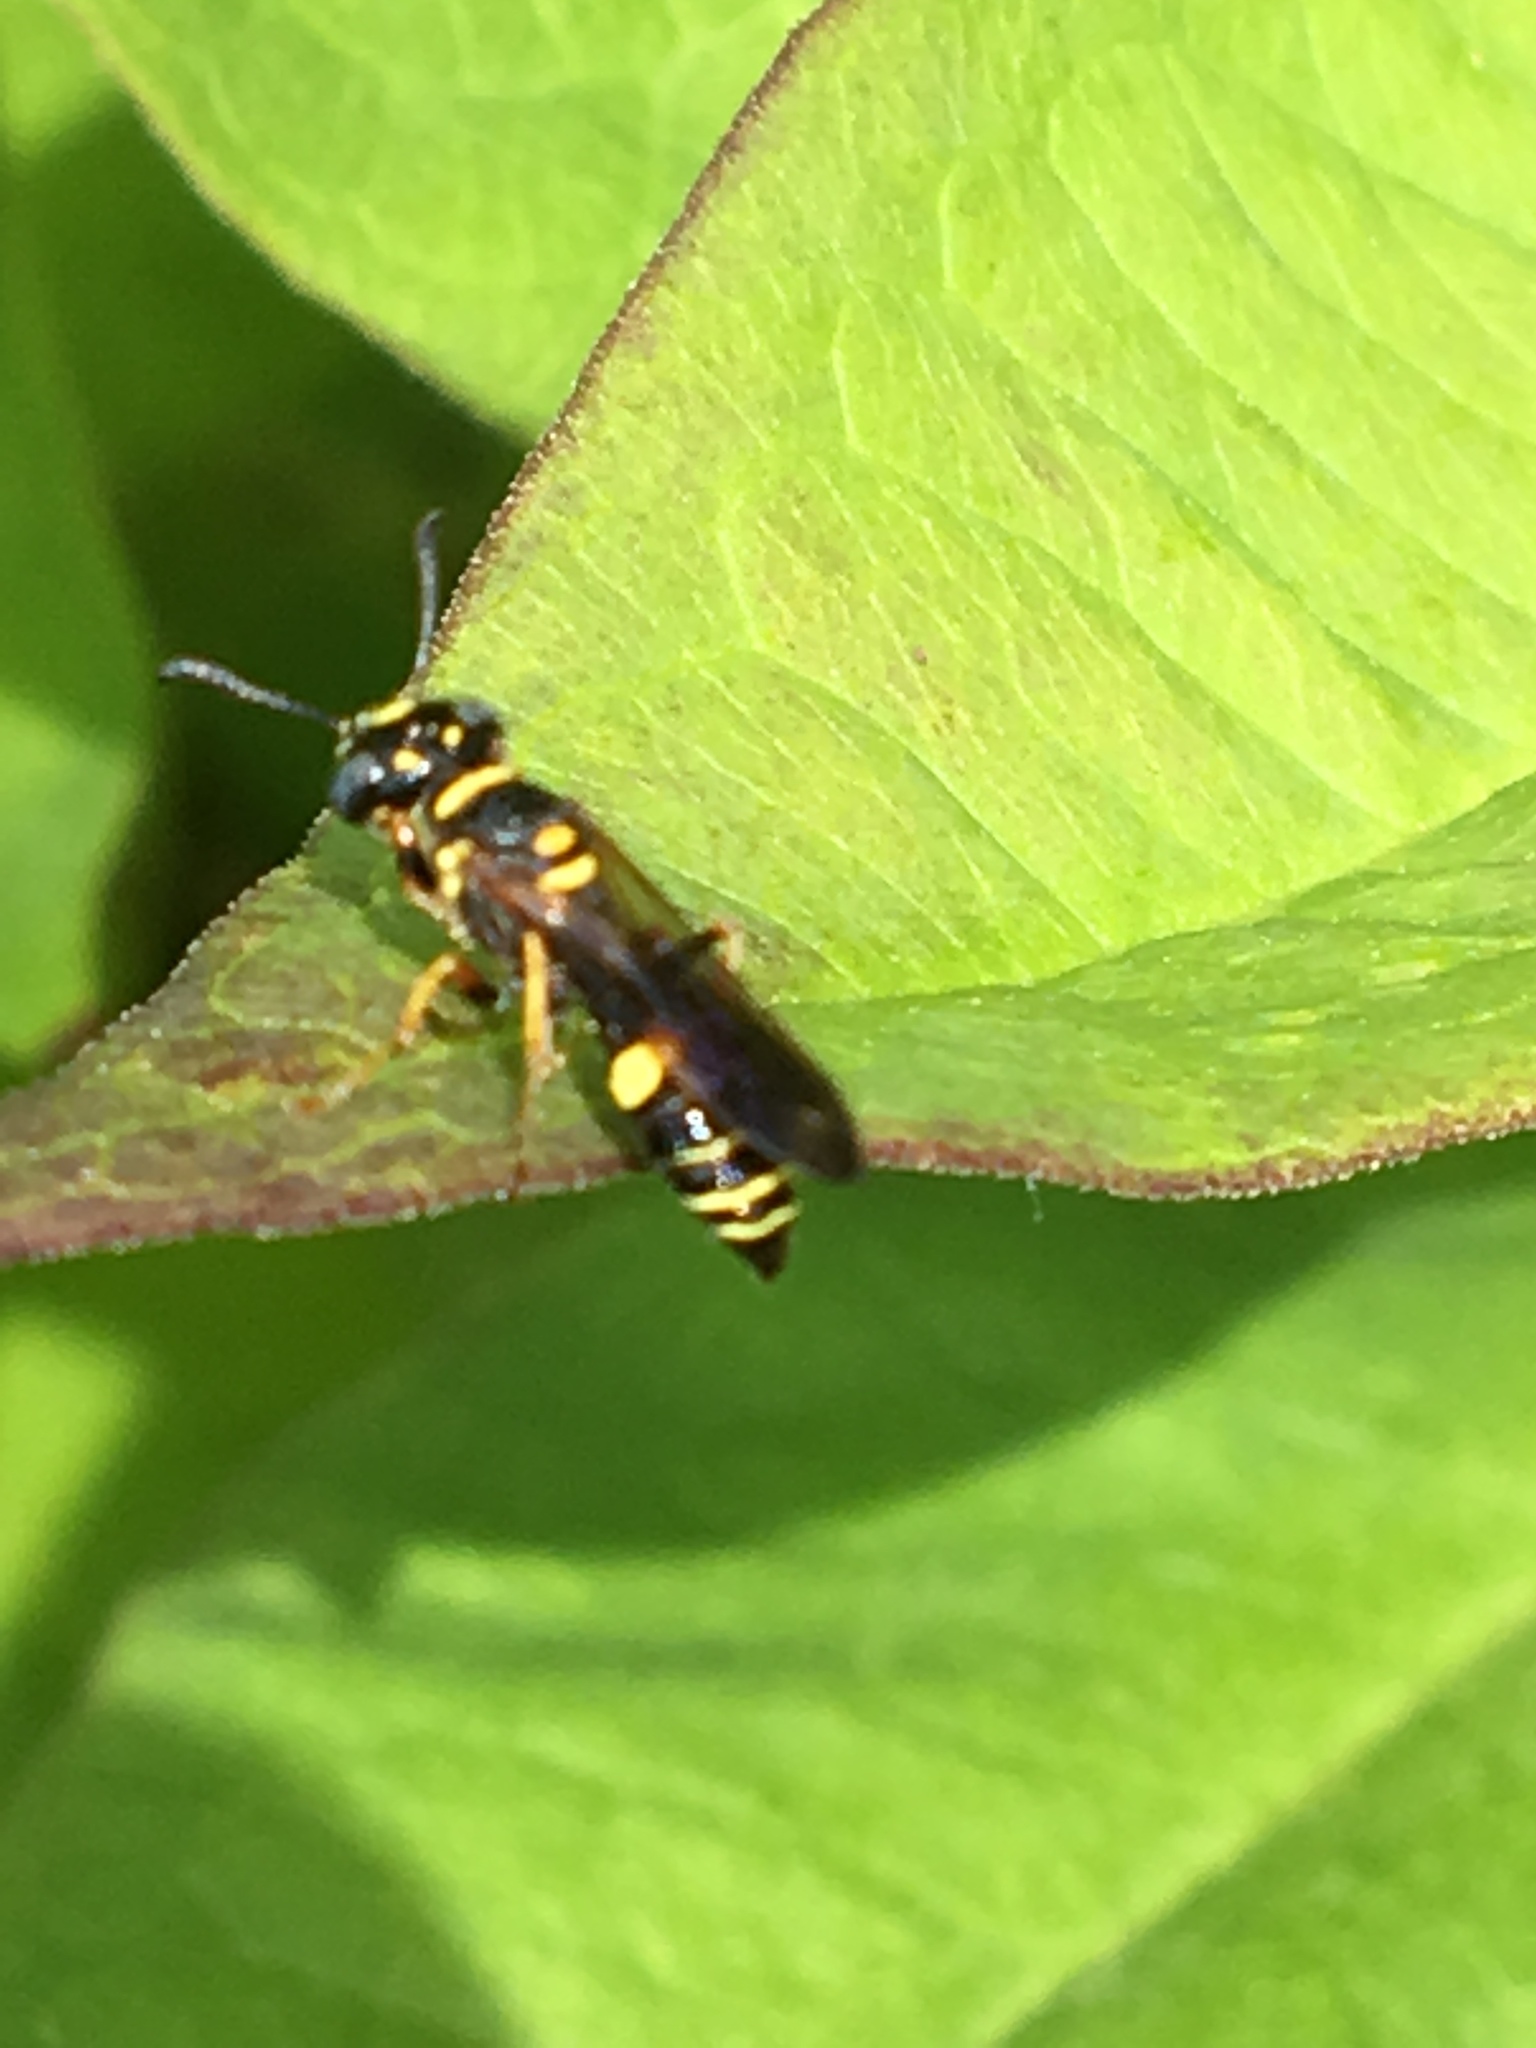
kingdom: Animalia
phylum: Arthropoda
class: Insecta
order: Hymenoptera
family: Crabronidae
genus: Philanthus
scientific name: Philanthus gibbosus
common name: Humped beewolf
